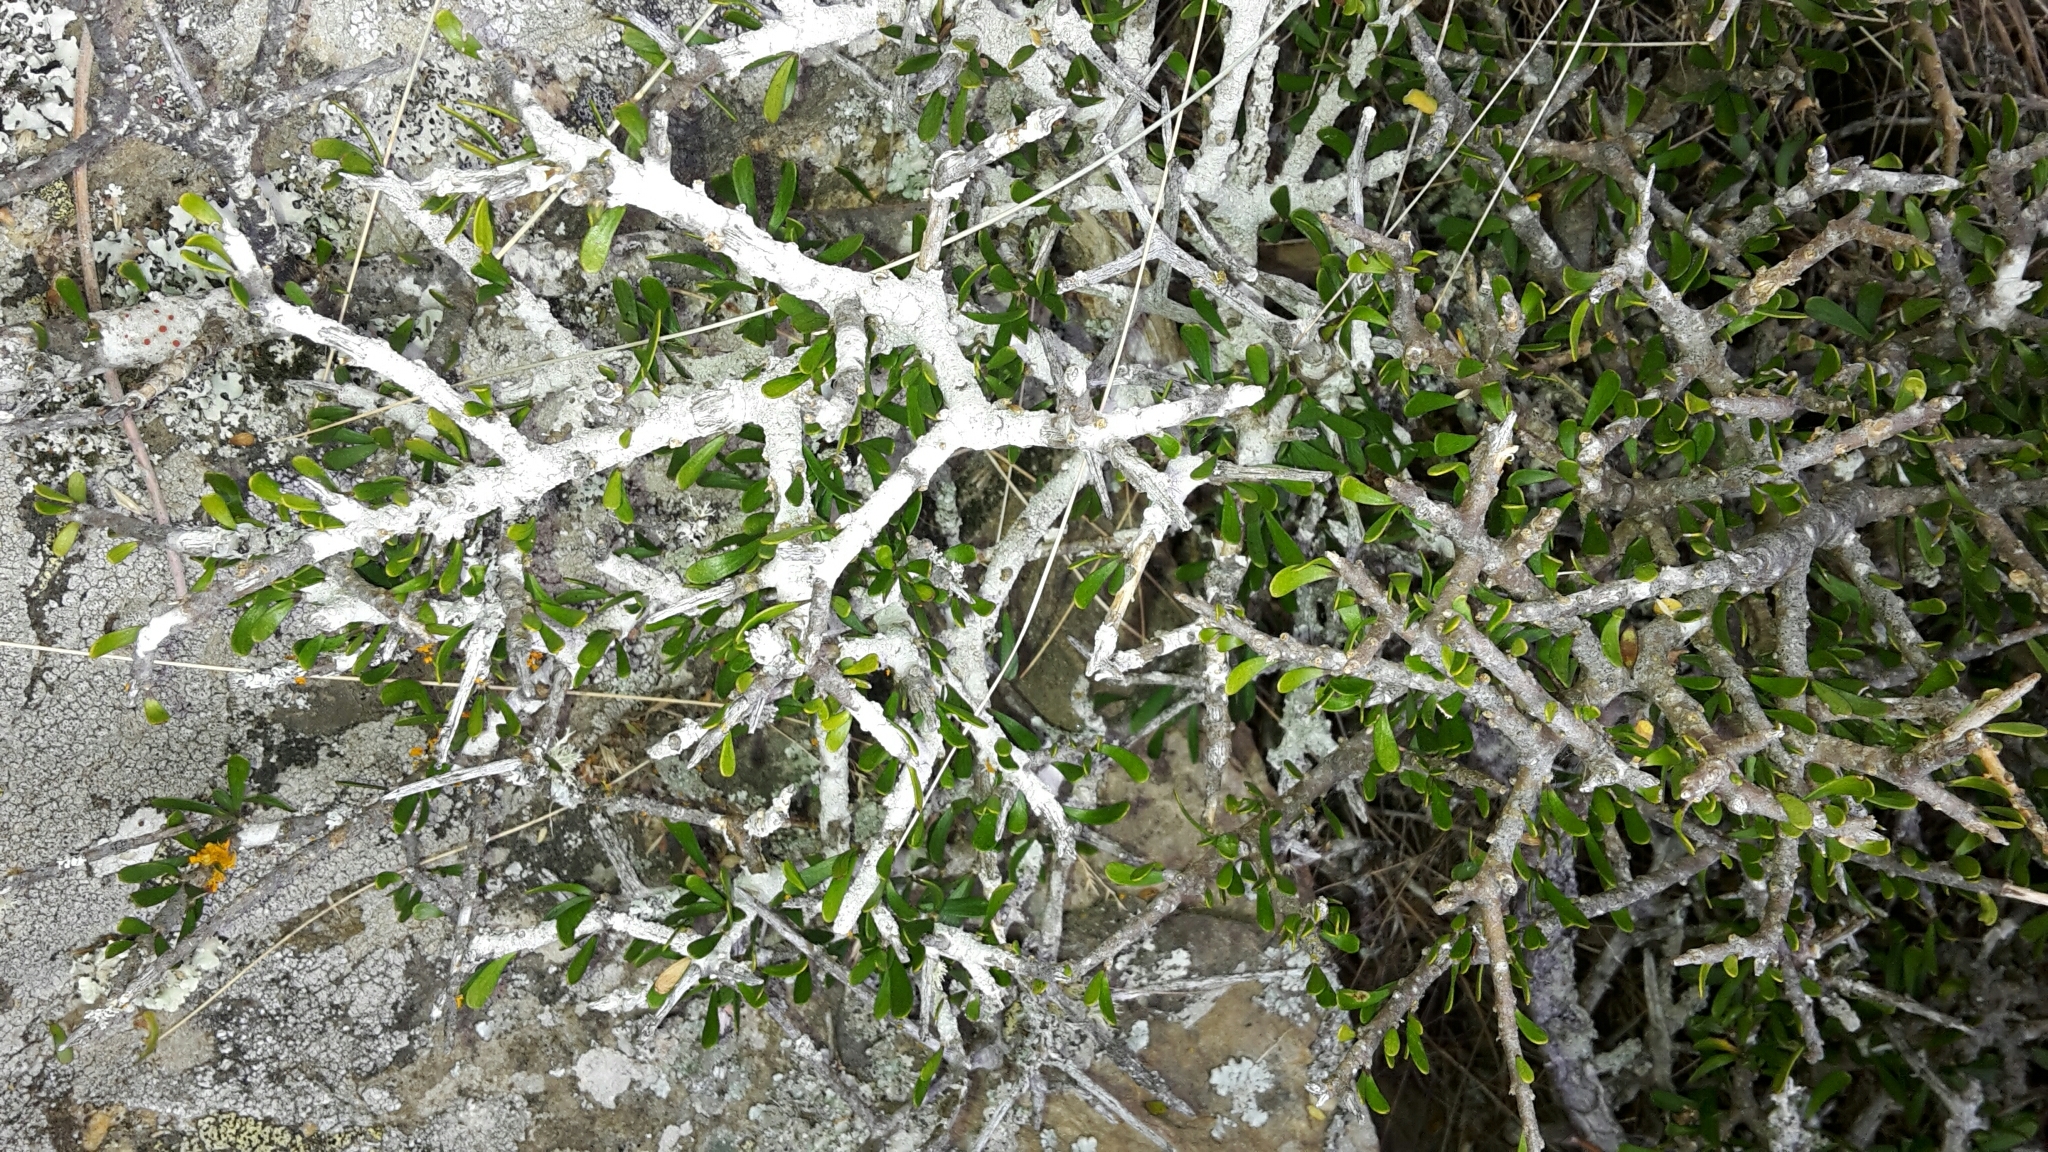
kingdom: Plantae
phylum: Tracheophyta
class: Magnoliopsida
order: Malpighiales
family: Violaceae
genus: Melicytus
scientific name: Melicytus alpinus
